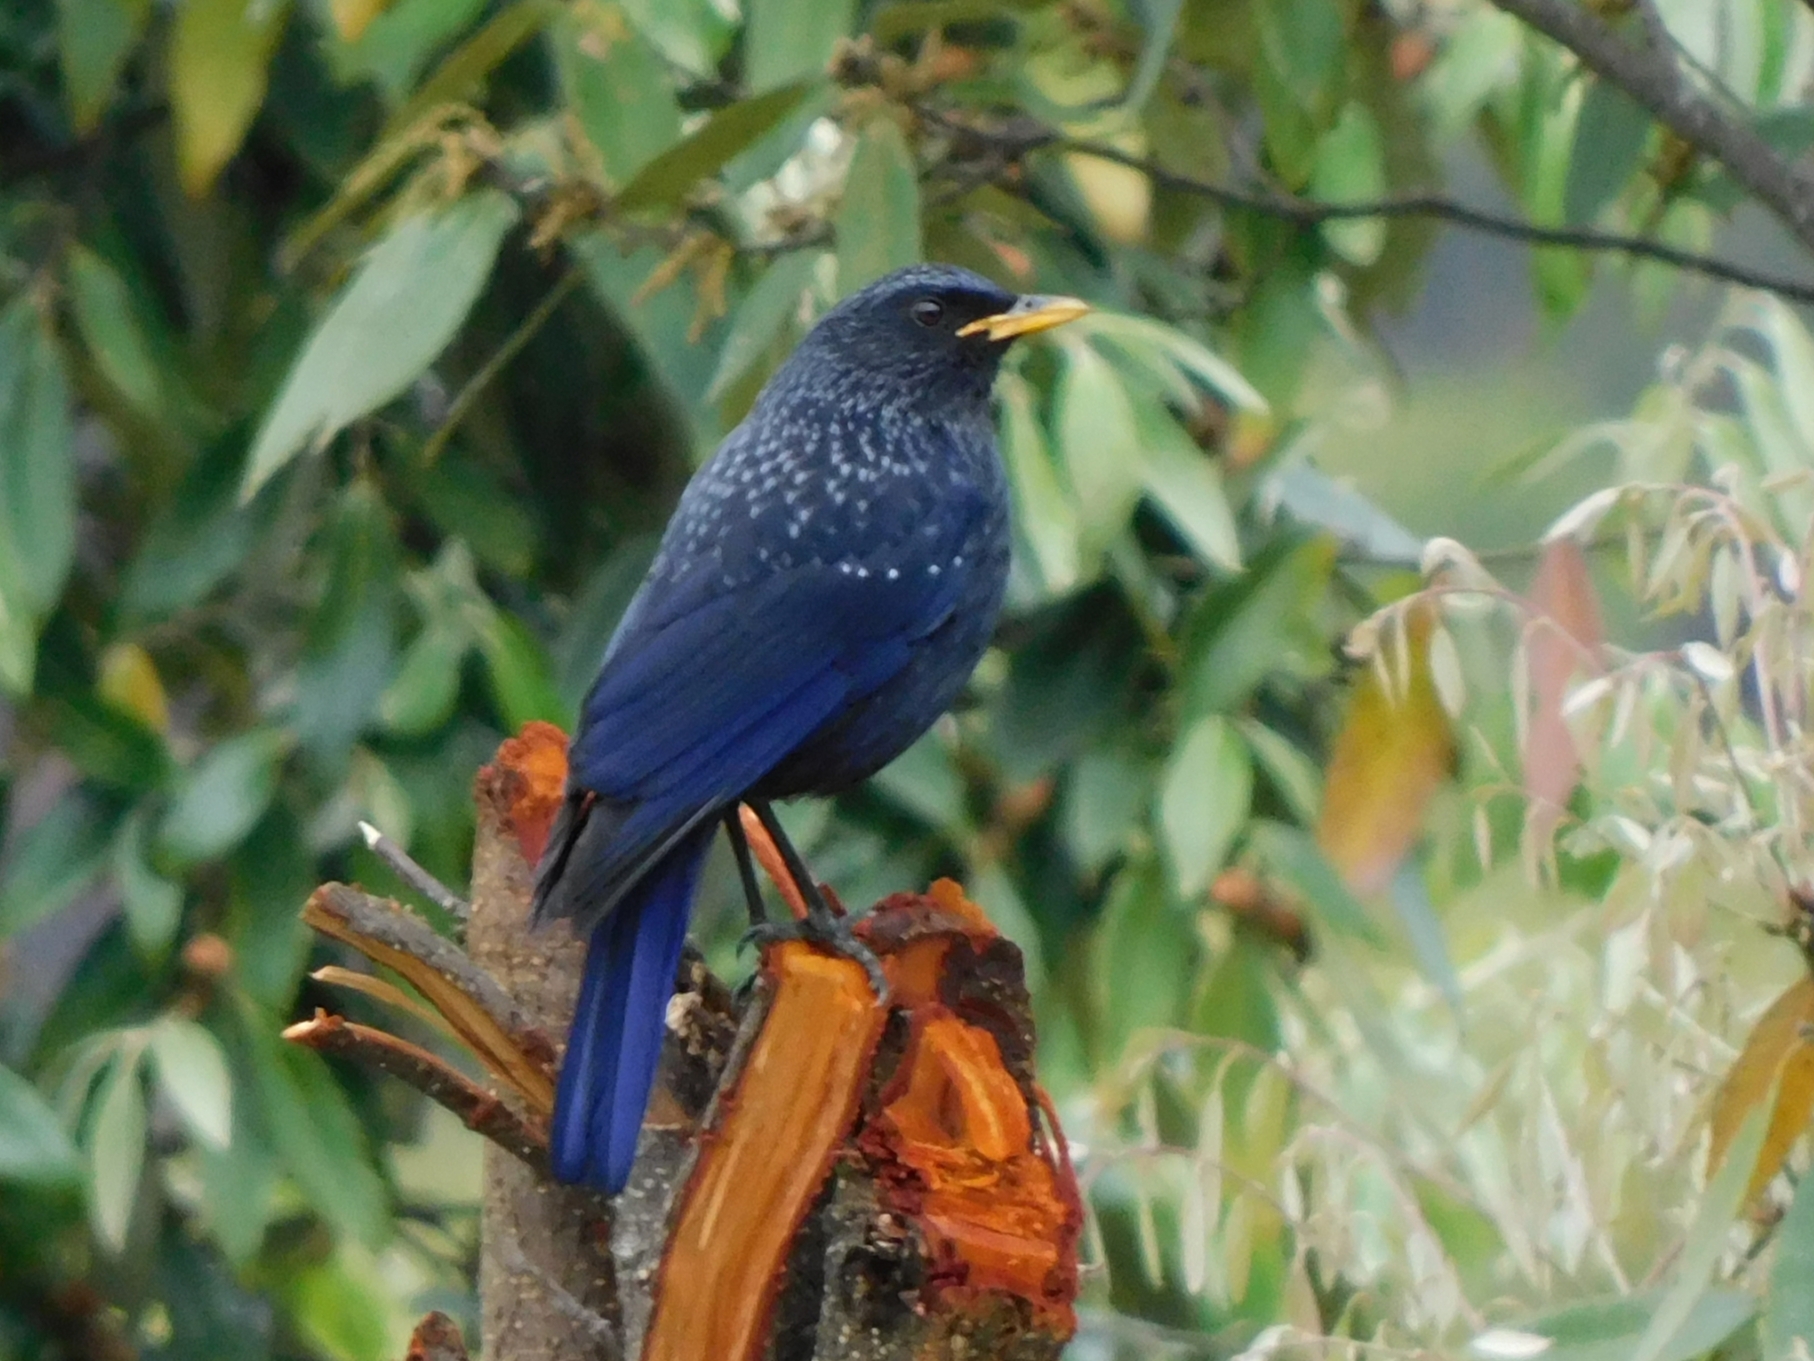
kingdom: Animalia
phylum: Chordata
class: Aves
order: Passeriformes
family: Muscicapidae
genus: Myophonus
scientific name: Myophonus caeruleus
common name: Blue whistling-thrush
